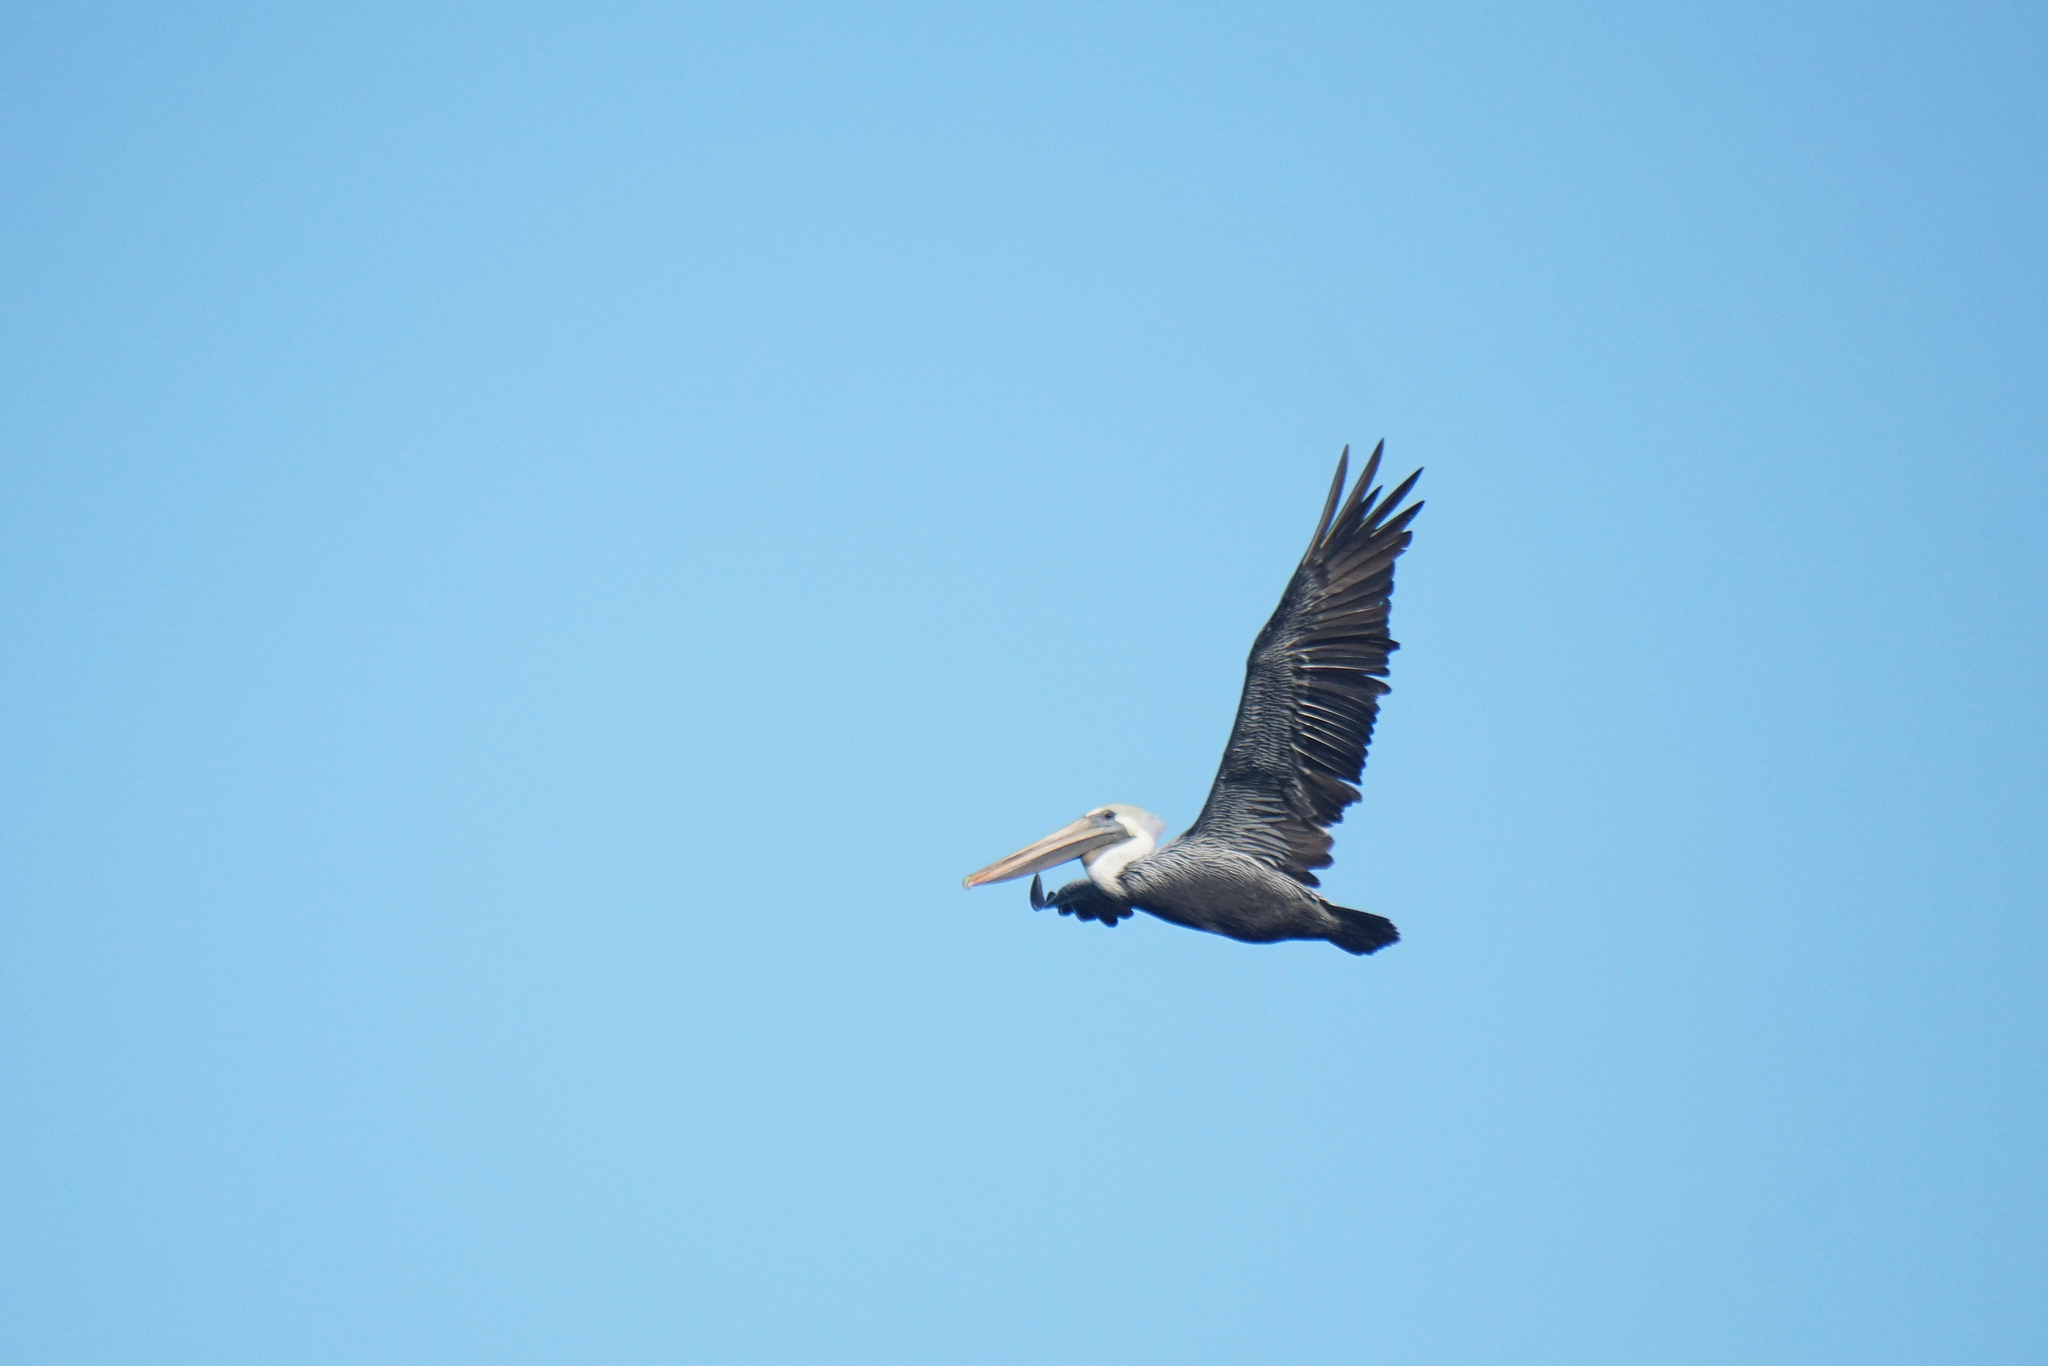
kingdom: Animalia
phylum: Chordata
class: Aves
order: Pelecaniformes
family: Pelecanidae
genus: Pelecanus
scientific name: Pelecanus occidentalis
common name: Brown pelican
